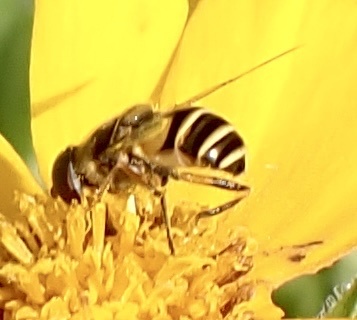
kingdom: Animalia
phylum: Arthropoda
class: Insecta
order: Diptera
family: Syrphidae
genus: Eristalis
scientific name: Eristalis transversa
